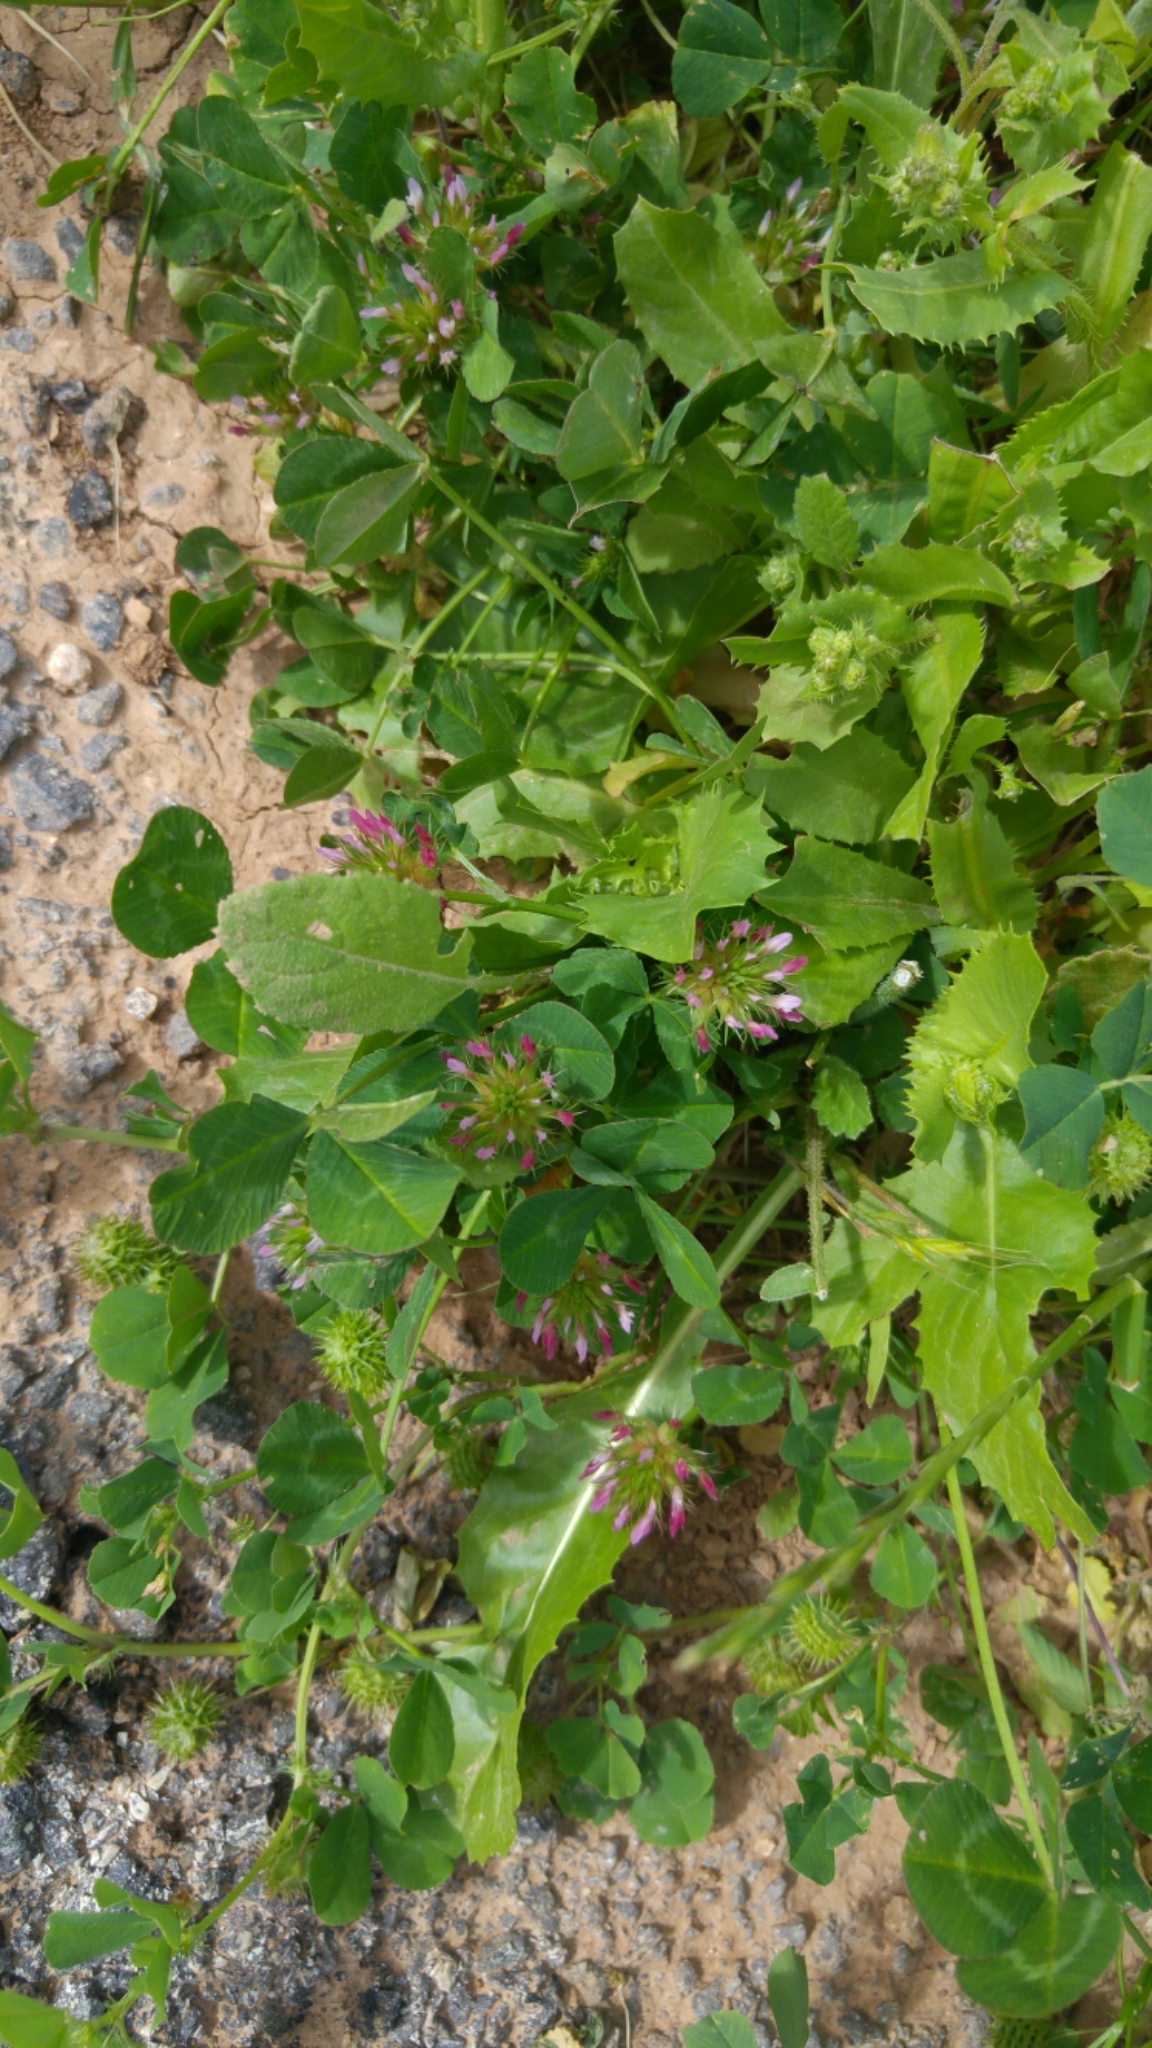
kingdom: Plantae
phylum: Tracheophyta
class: Magnoliopsida
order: Fabales
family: Fabaceae
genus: Trifolium
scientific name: Trifolium
